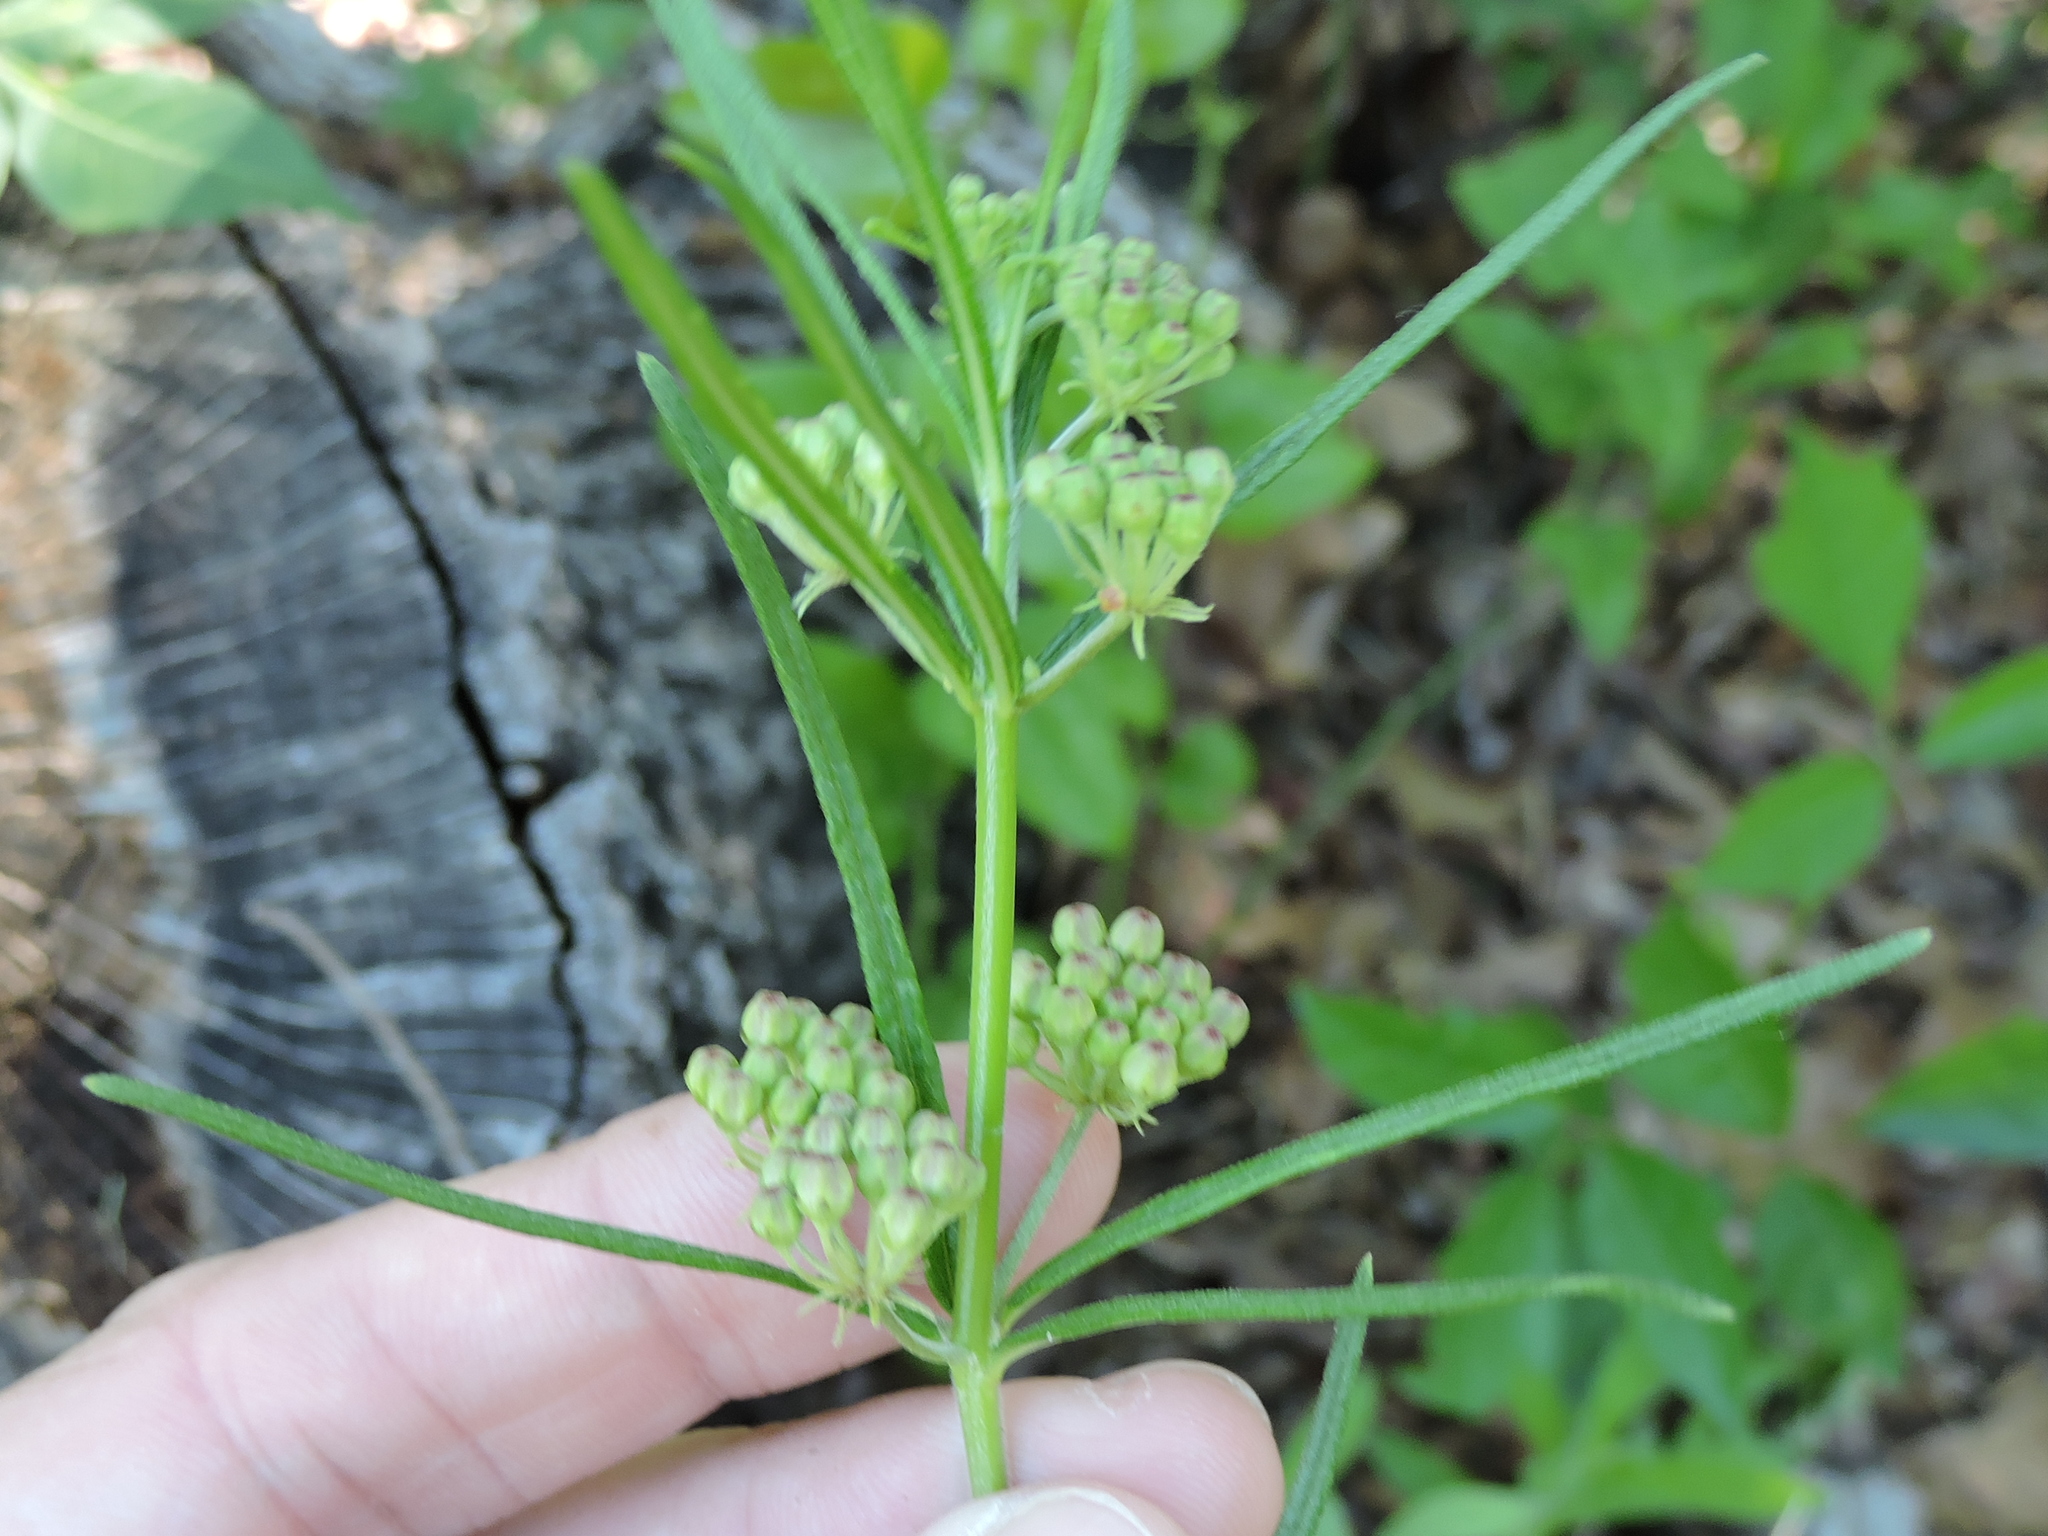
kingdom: Plantae
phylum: Tracheophyta
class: Magnoliopsida
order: Gentianales
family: Apocynaceae
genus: Asclepias
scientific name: Asclepias verticillata
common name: Eastern whorled milkweed
